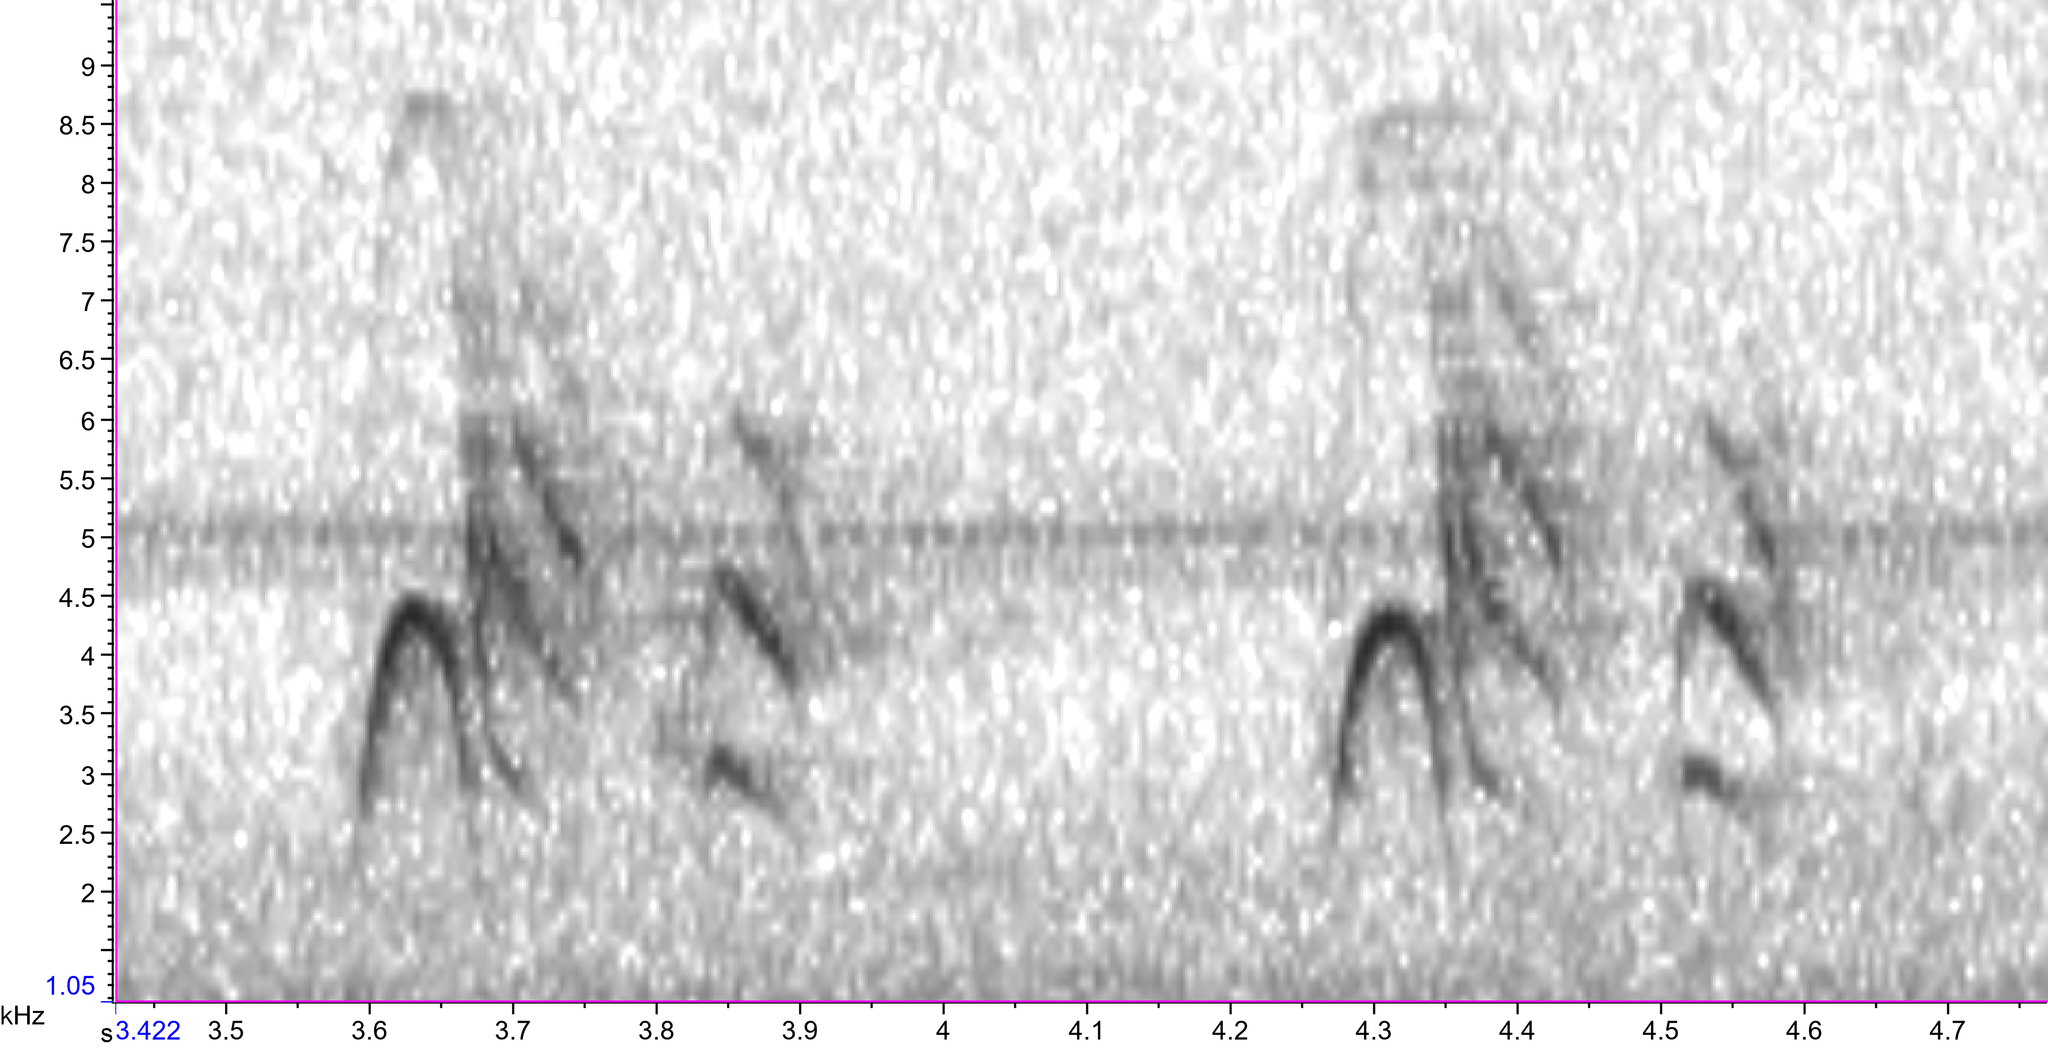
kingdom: Animalia
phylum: Chordata
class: Aves
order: Passeriformes
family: Sittidae
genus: Sitta
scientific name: Sitta pusilla
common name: Brown-headed nuthatch
